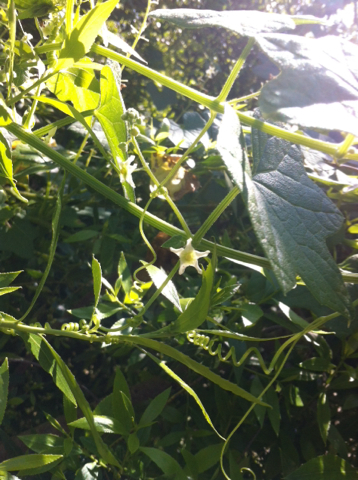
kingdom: Plantae
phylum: Tracheophyta
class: Magnoliopsida
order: Cucurbitales
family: Cucurbitaceae
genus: Marah
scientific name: Marah fabacea
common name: California manroot
